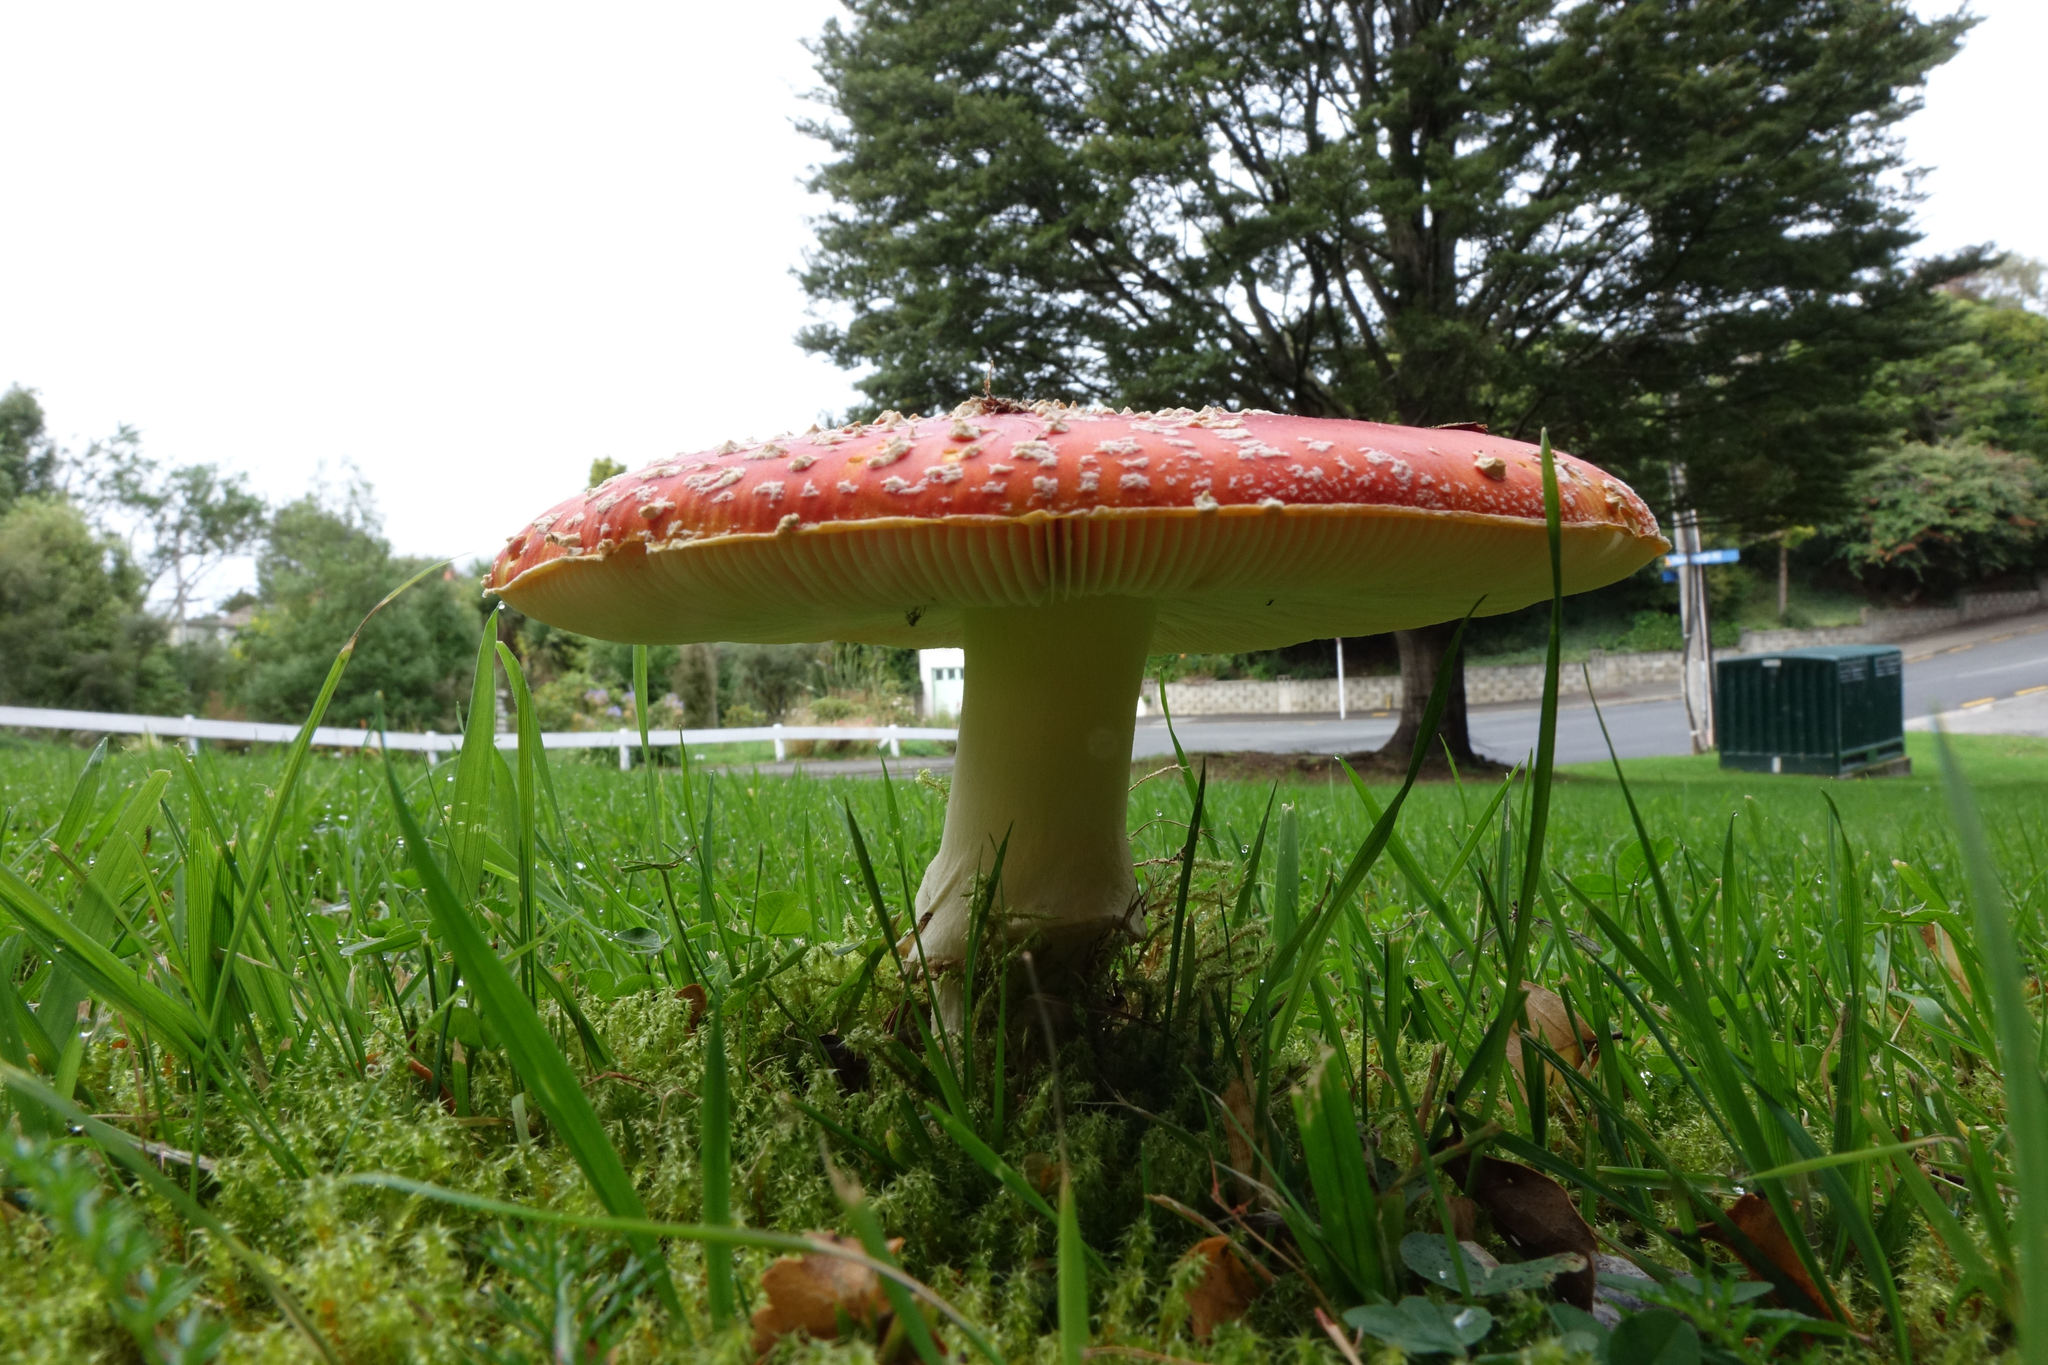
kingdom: Fungi
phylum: Basidiomycota
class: Agaricomycetes
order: Agaricales
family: Amanitaceae
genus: Amanita
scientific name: Amanita muscaria
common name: Fly agaric
